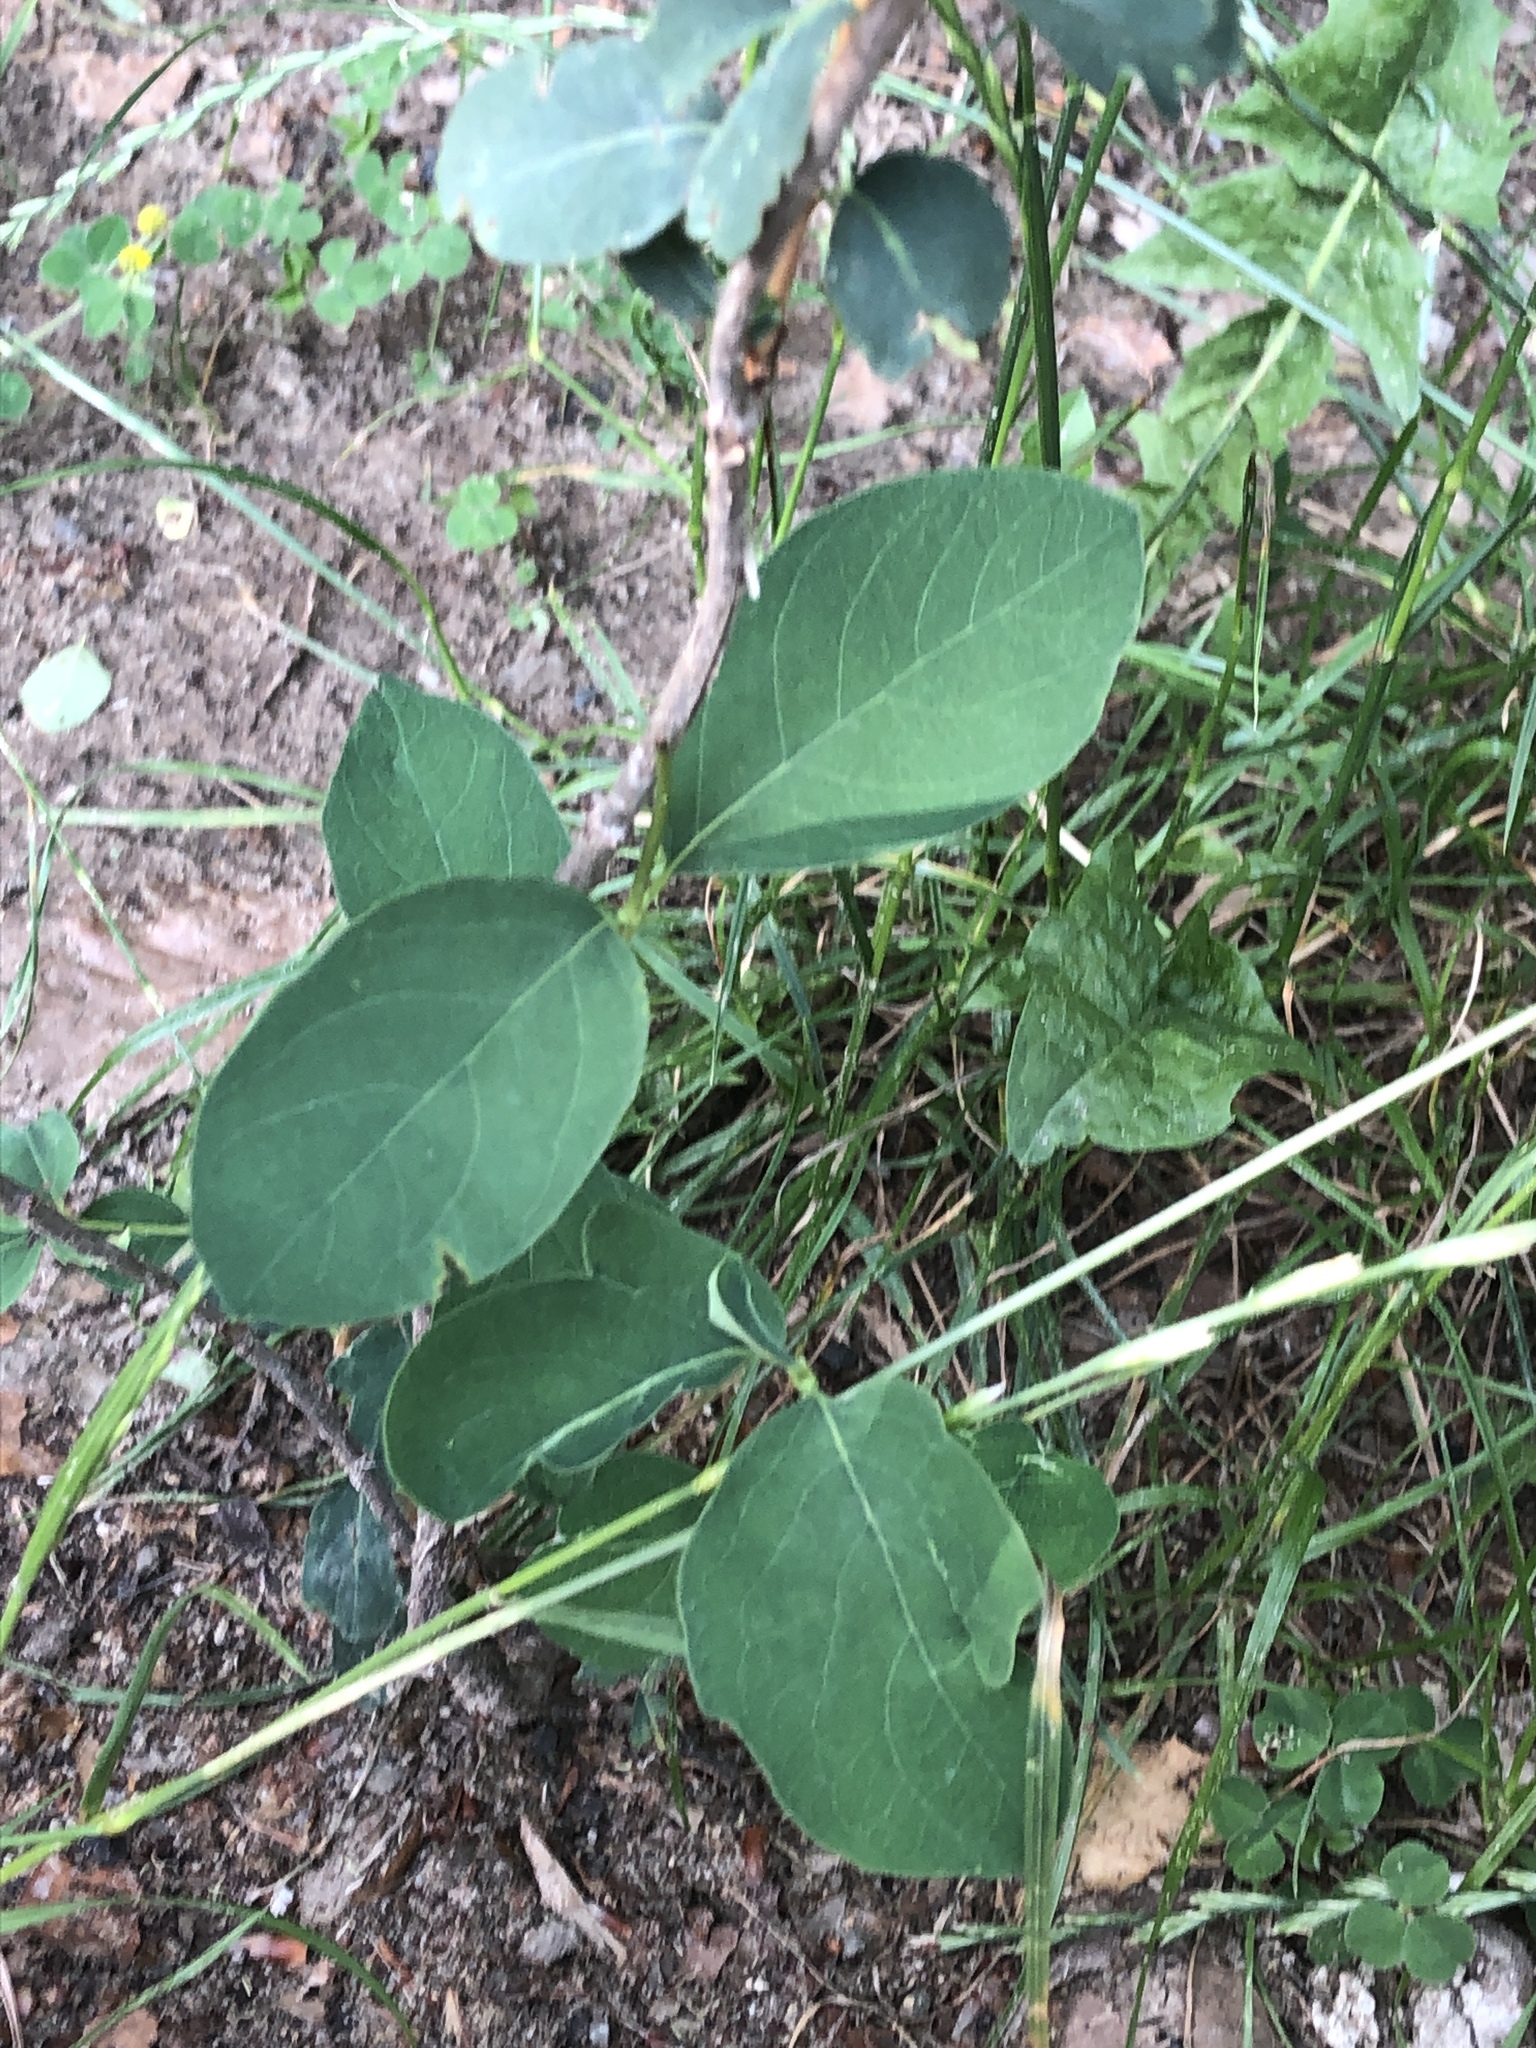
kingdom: Plantae
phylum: Tracheophyta
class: Magnoliopsida
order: Dipsacales
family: Caprifoliaceae
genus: Symphoricarpos
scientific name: Symphoricarpos albus
